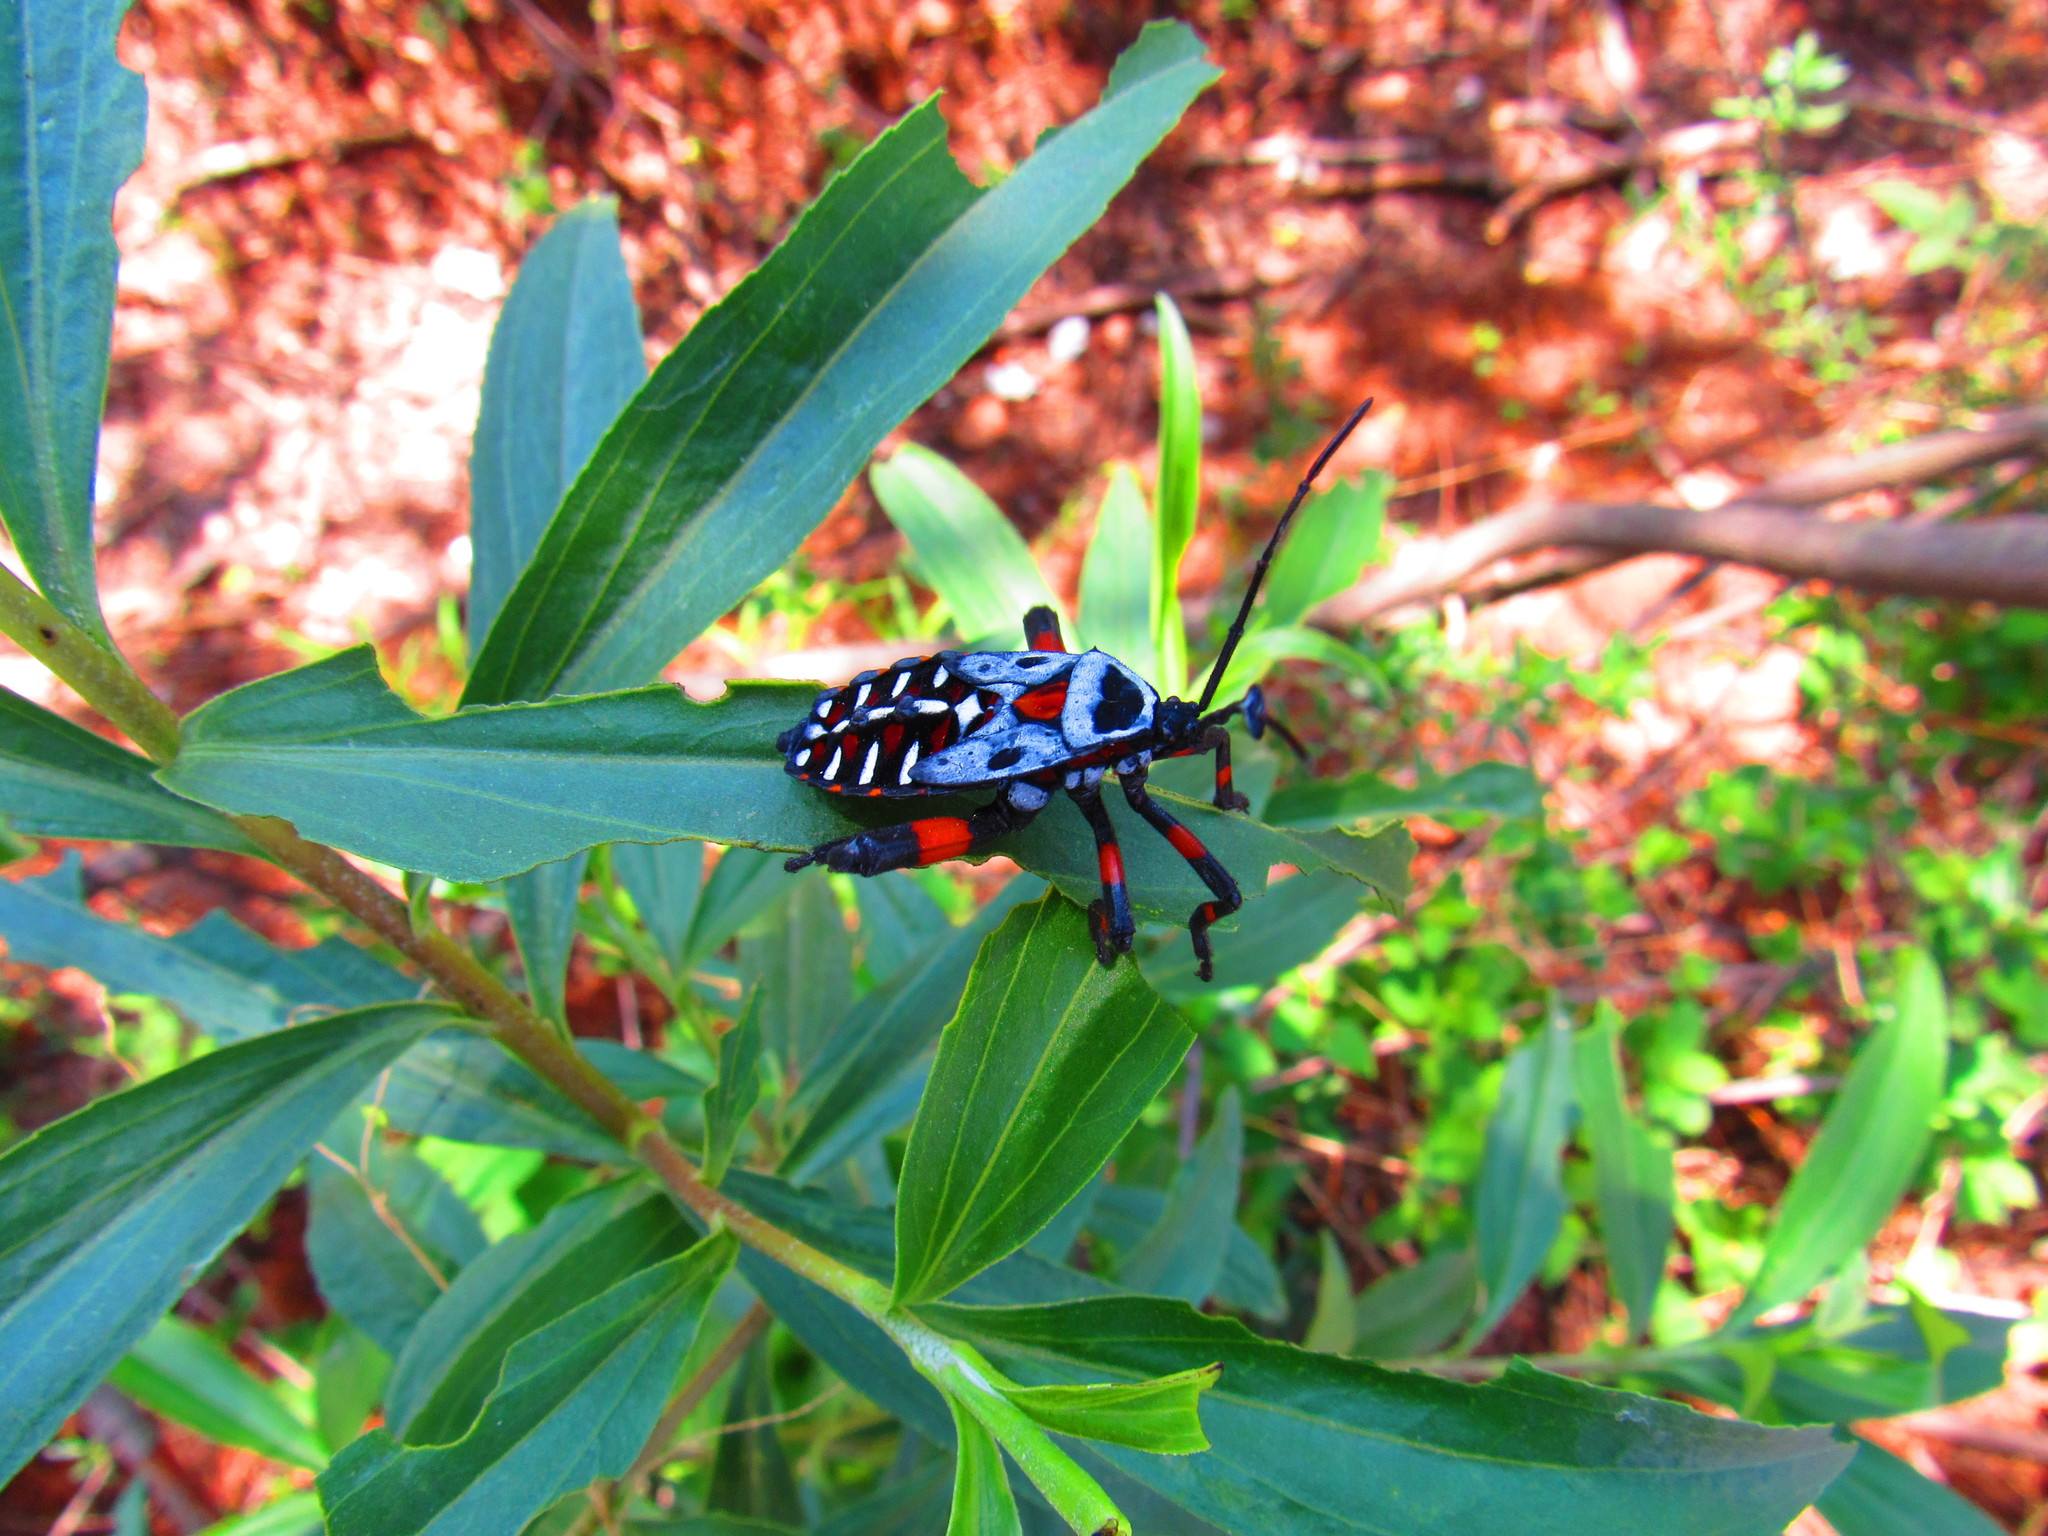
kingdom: Animalia
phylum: Arthropoda
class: Insecta
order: Hemiptera
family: Coreidae
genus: Thasus
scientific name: Thasus
